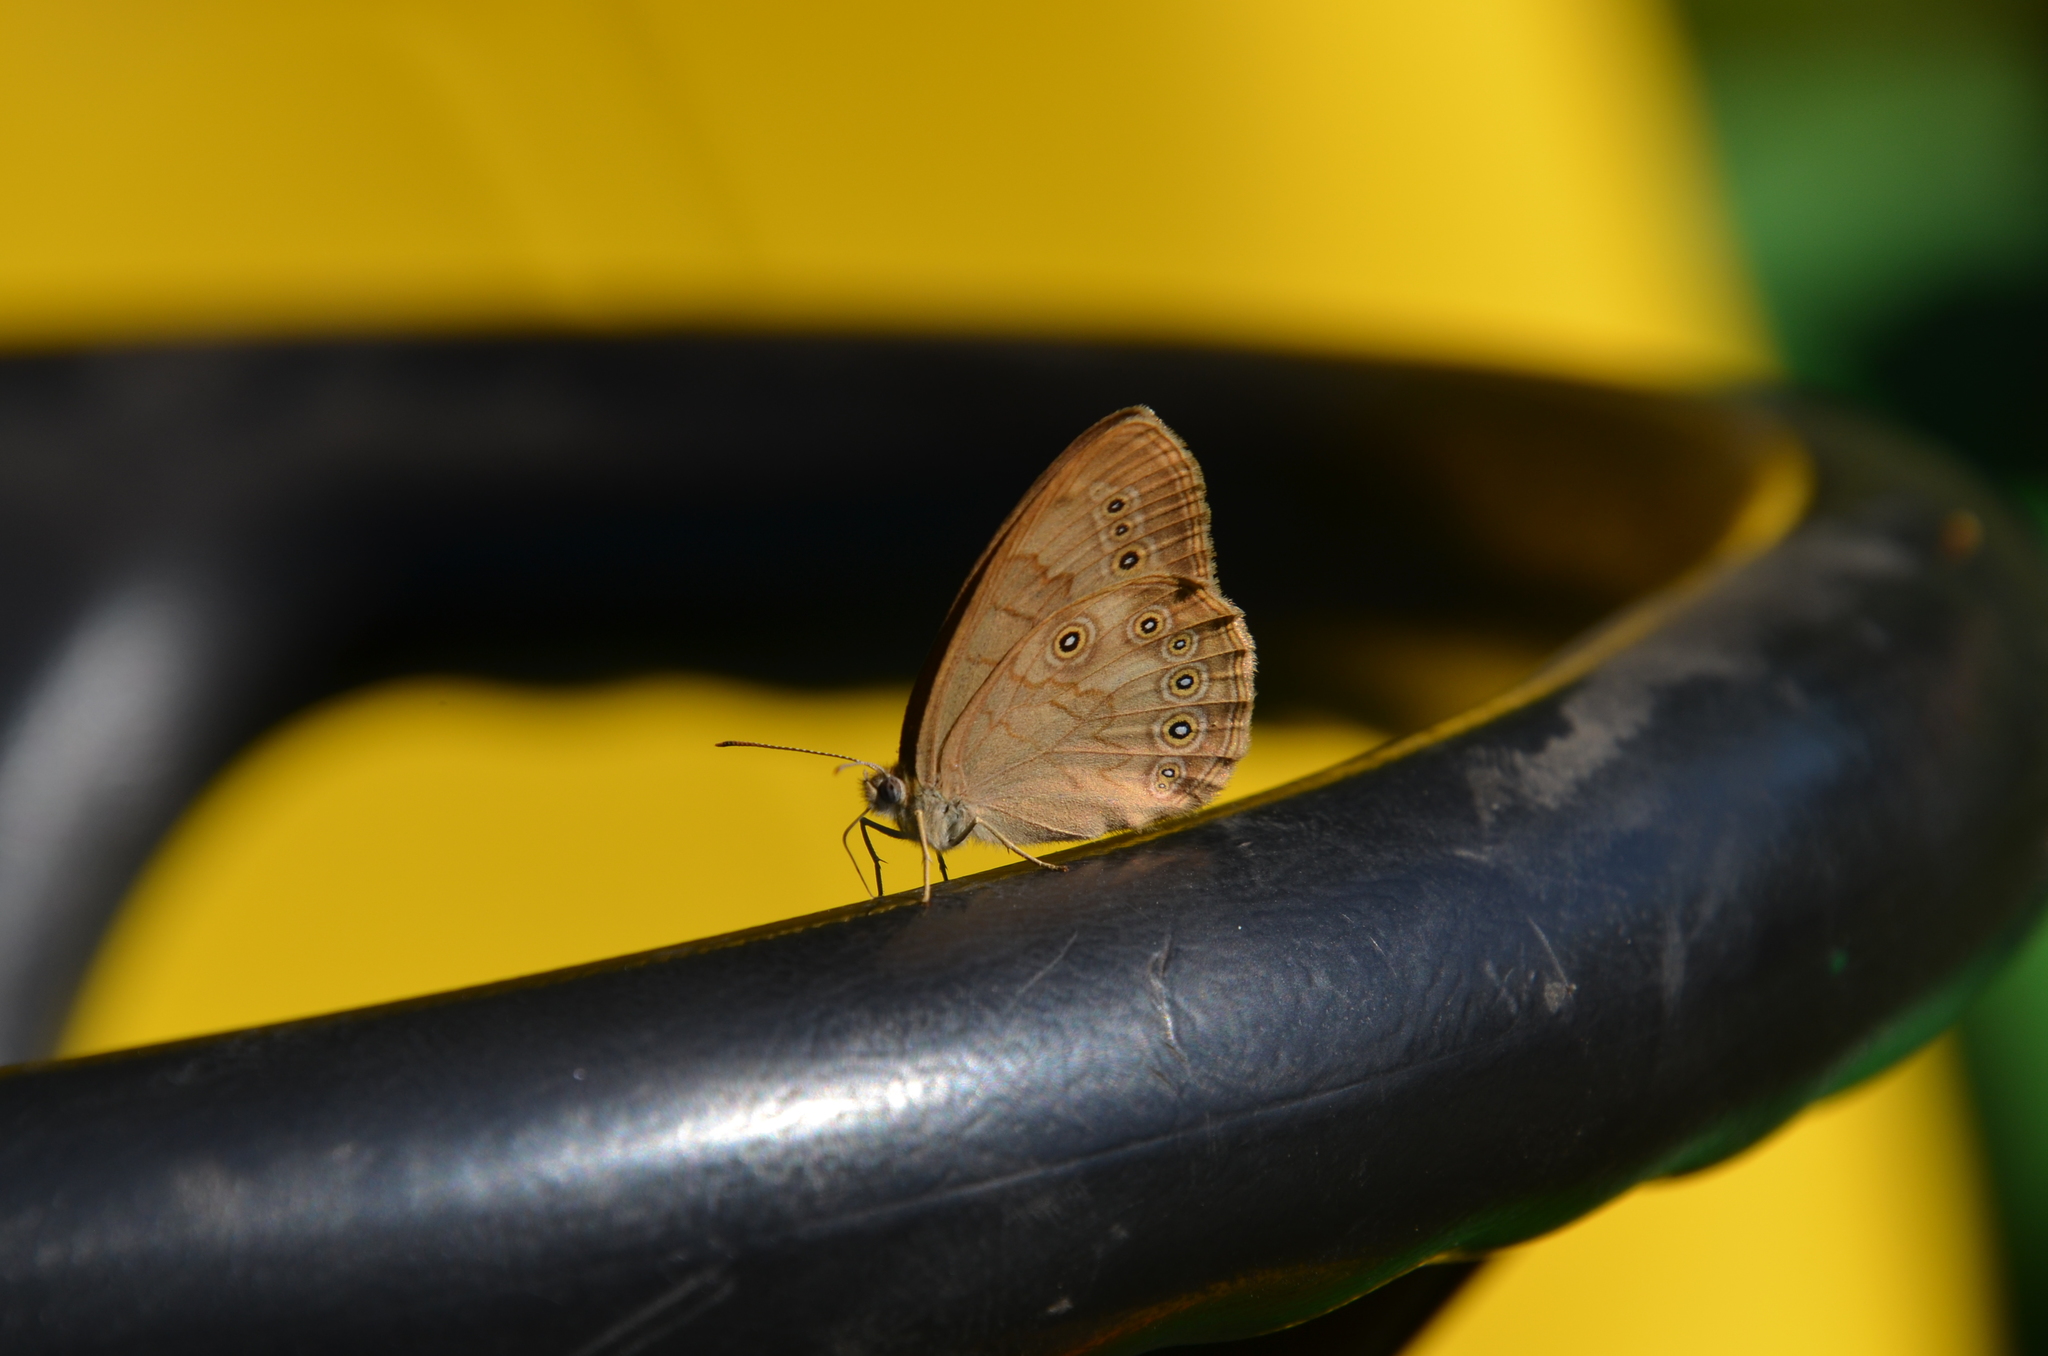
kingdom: Animalia
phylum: Arthropoda
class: Insecta
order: Lepidoptera
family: Nymphalidae
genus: Lethe
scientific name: Lethe eurydice
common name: Eyed brown
